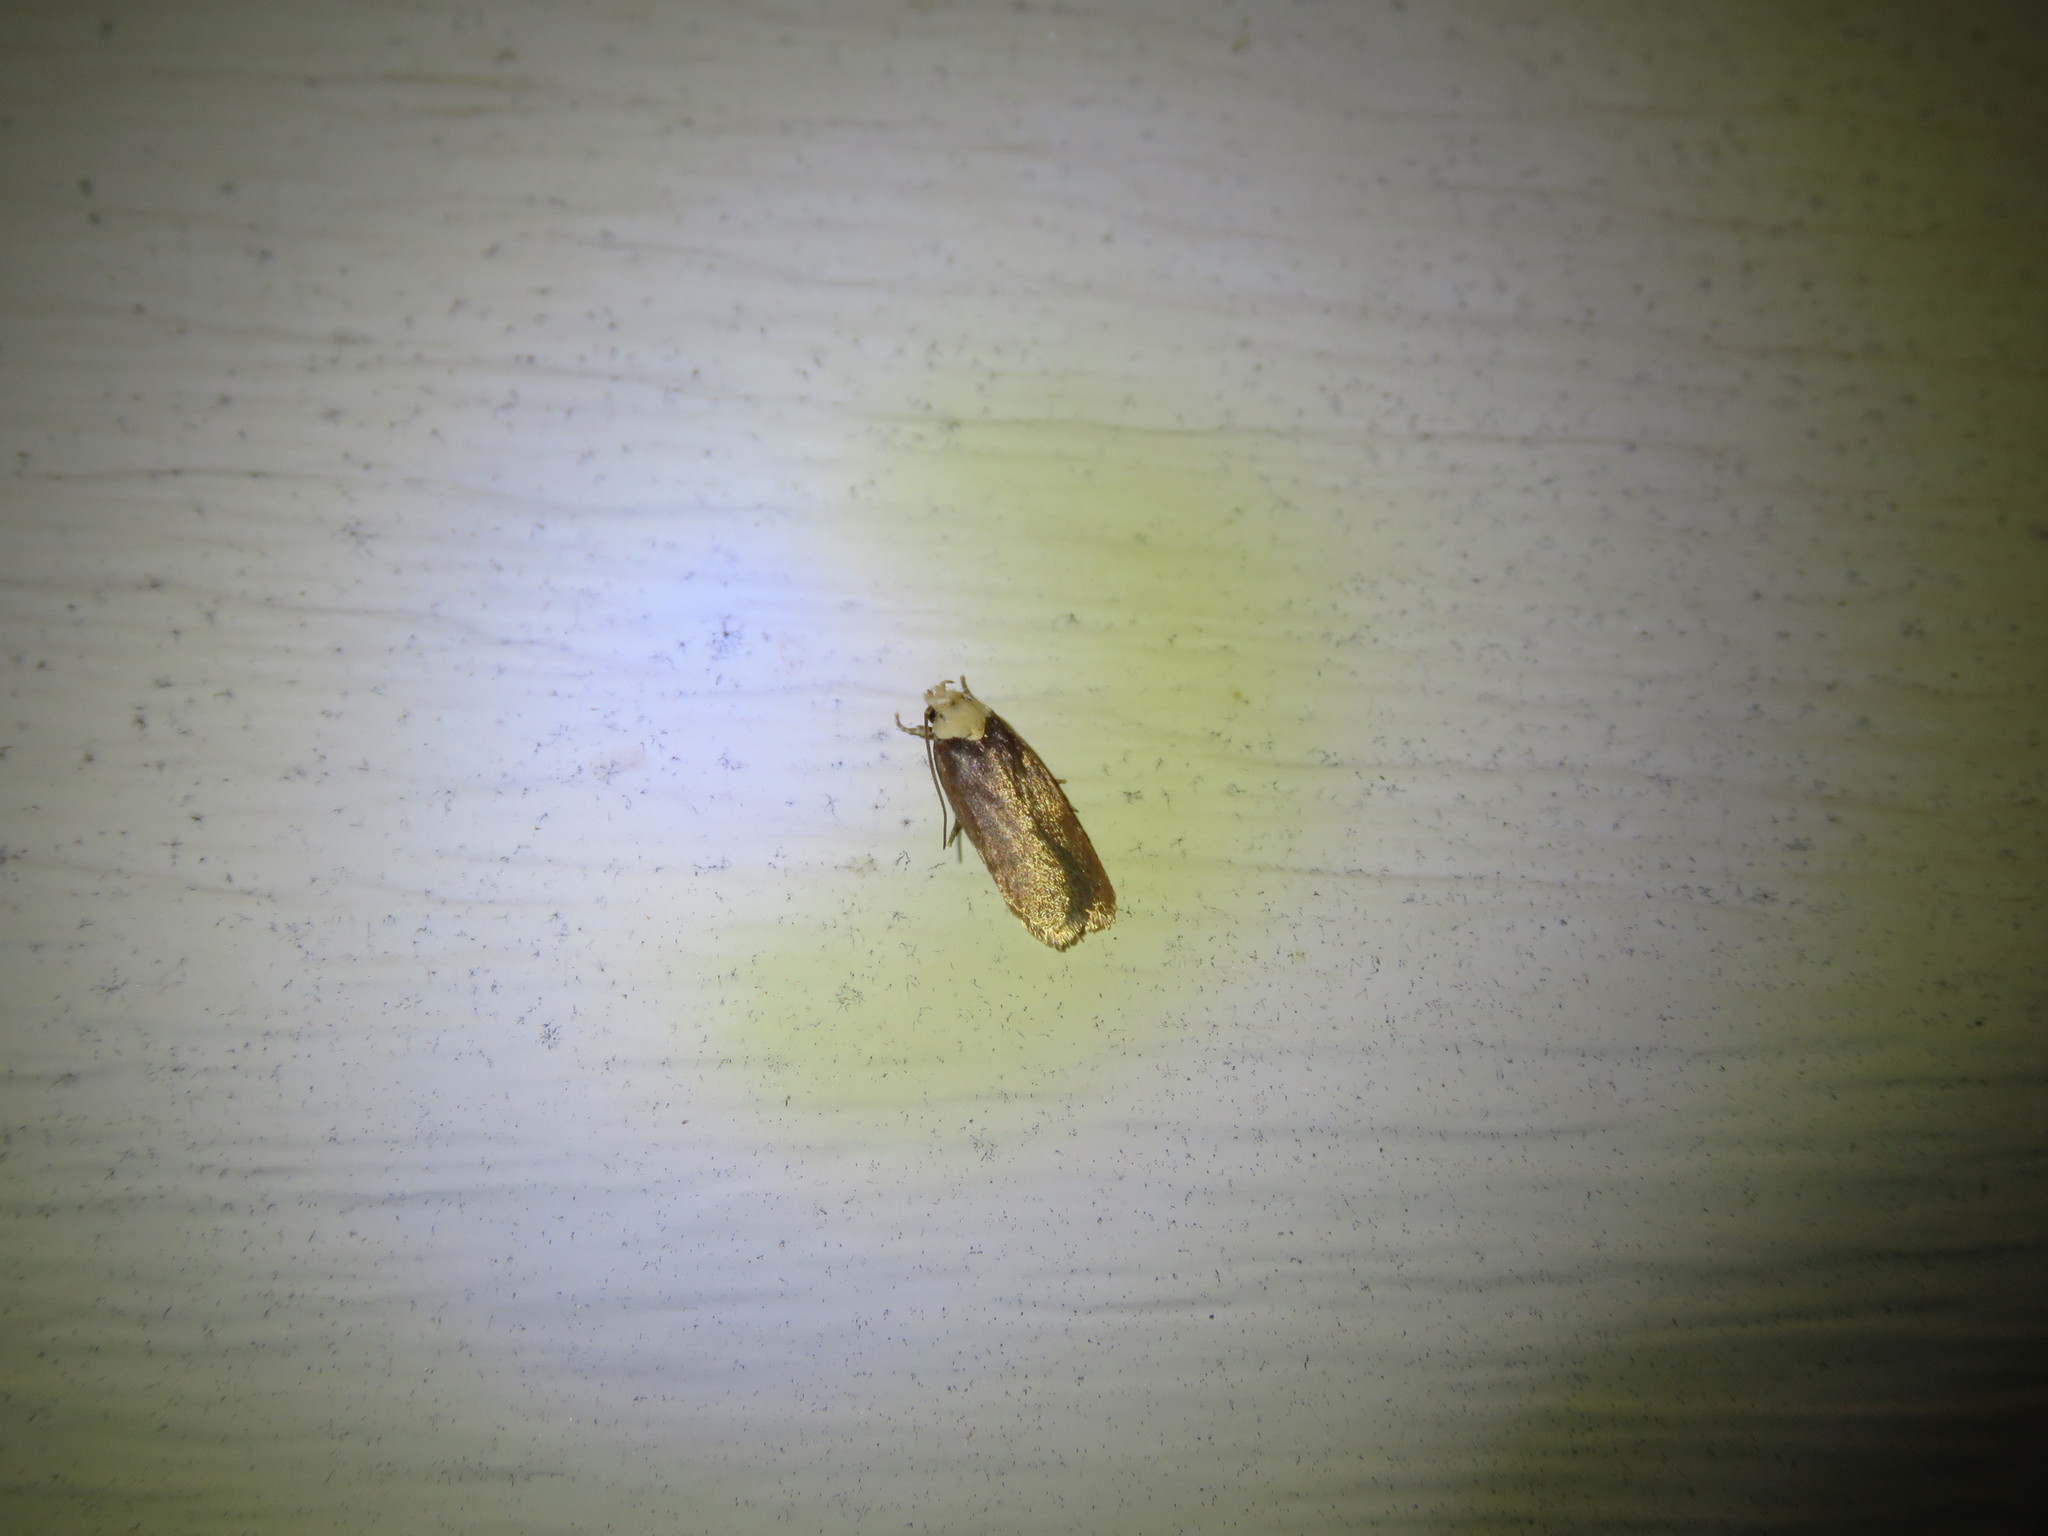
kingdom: Animalia
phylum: Arthropoda
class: Insecta
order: Lepidoptera
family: Depressariidae
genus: Depressaria
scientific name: Depressaria depressana
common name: Lost flat-body
